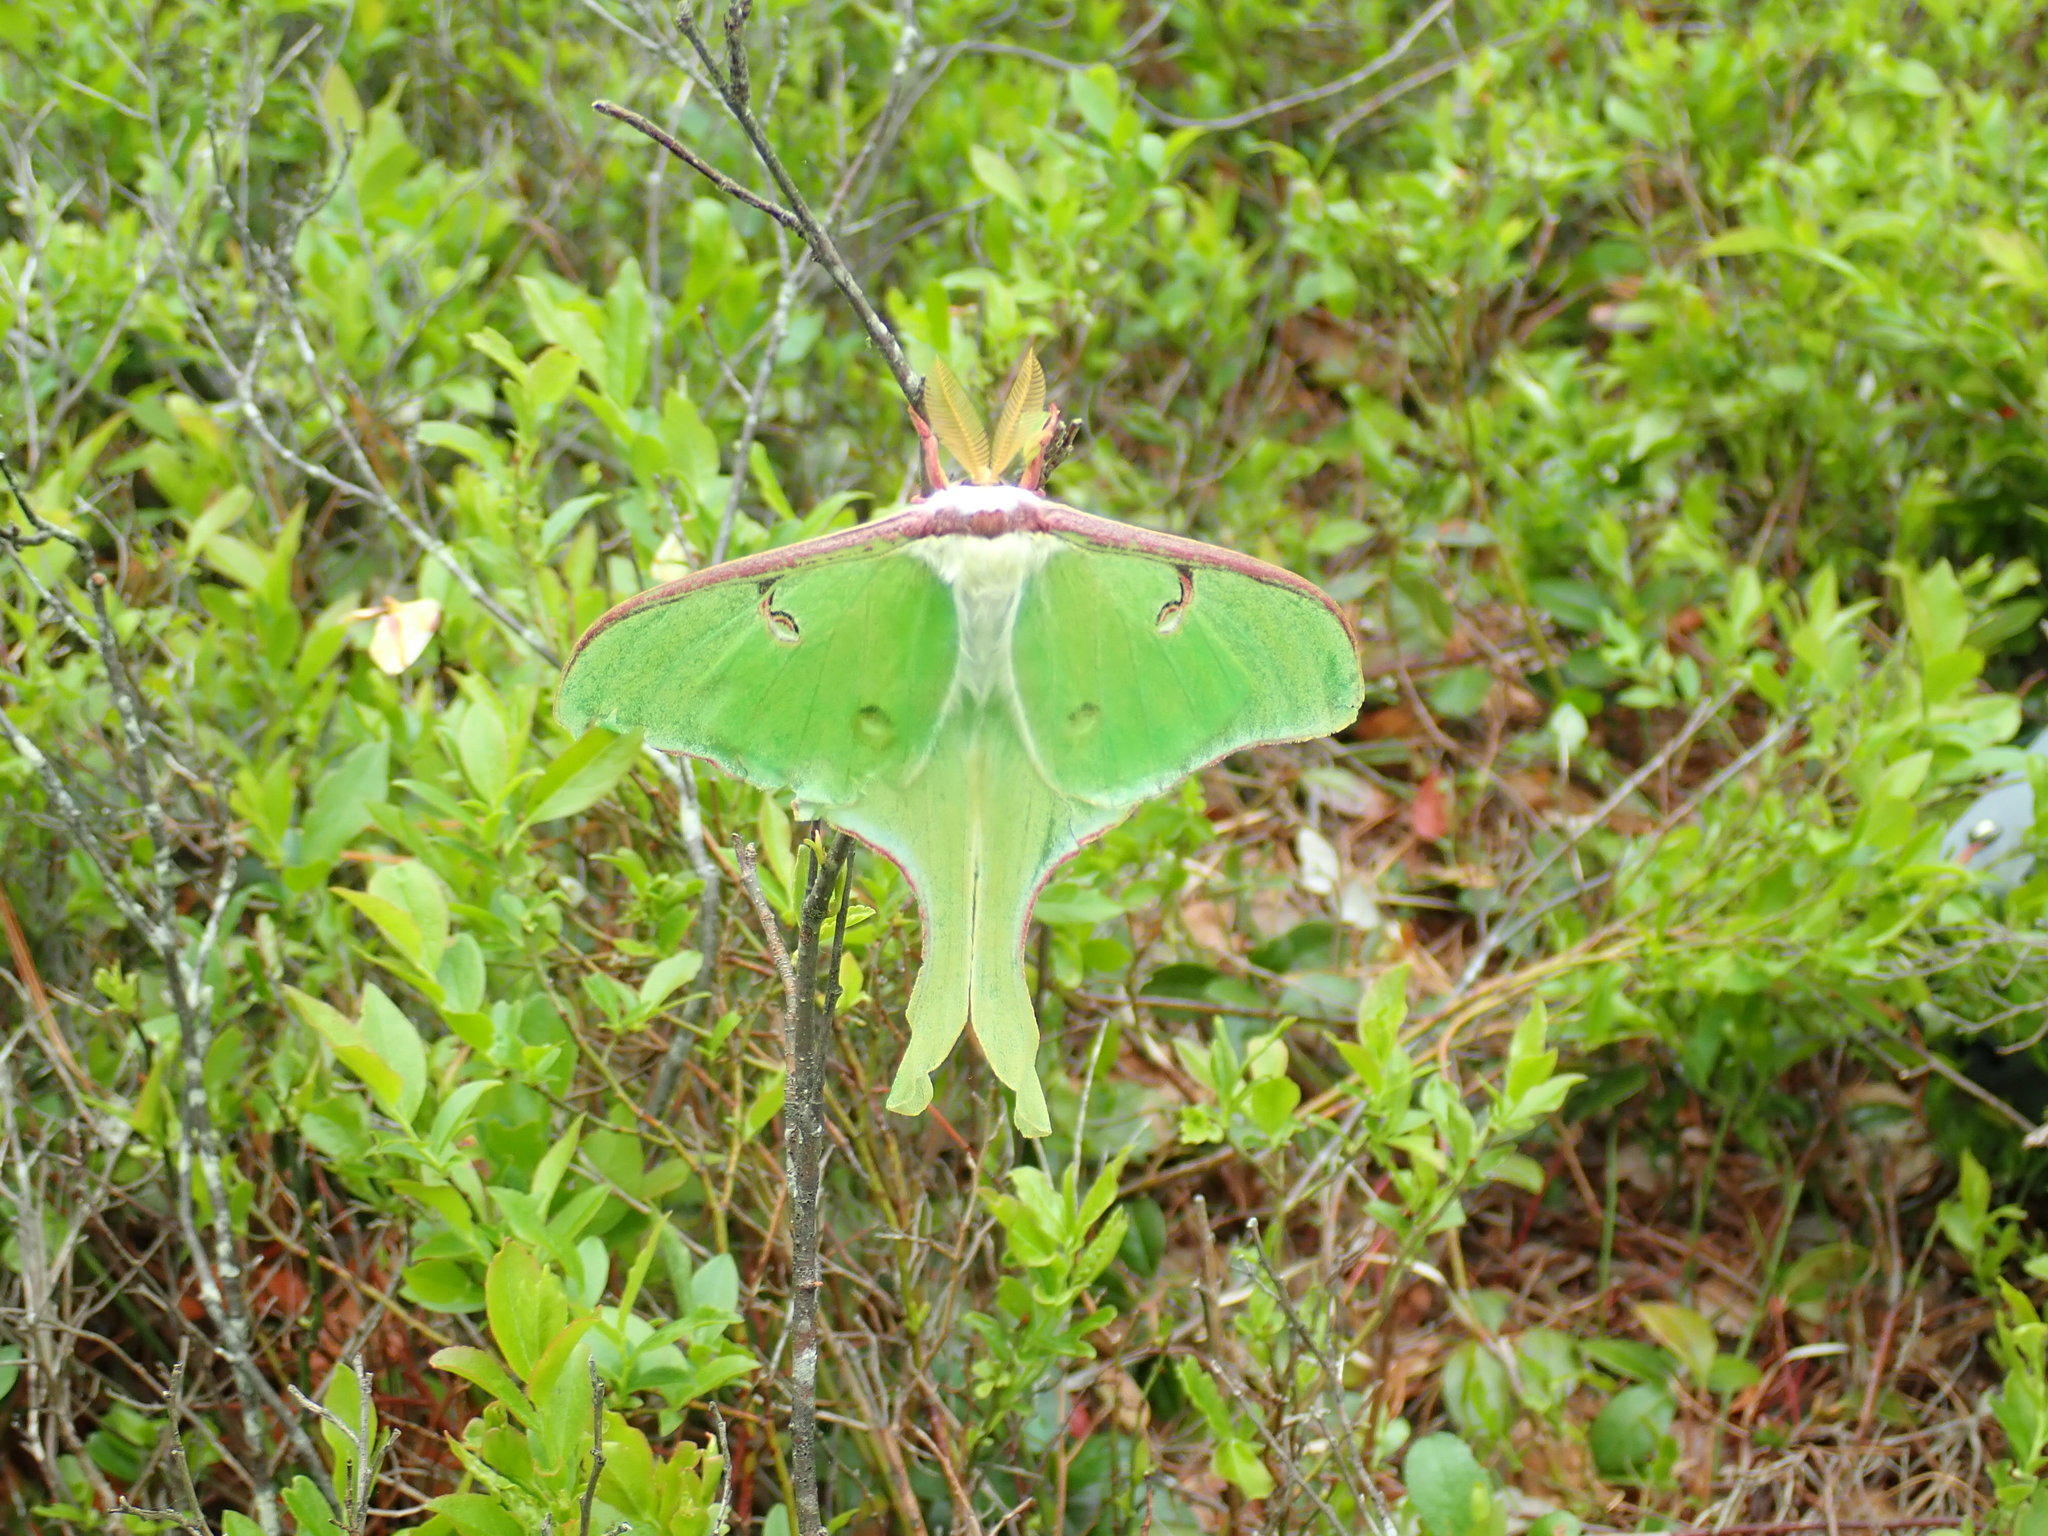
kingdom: Animalia
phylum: Arthropoda
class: Insecta
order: Lepidoptera
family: Saturniidae
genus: Actias
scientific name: Actias luna
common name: Luna moth
